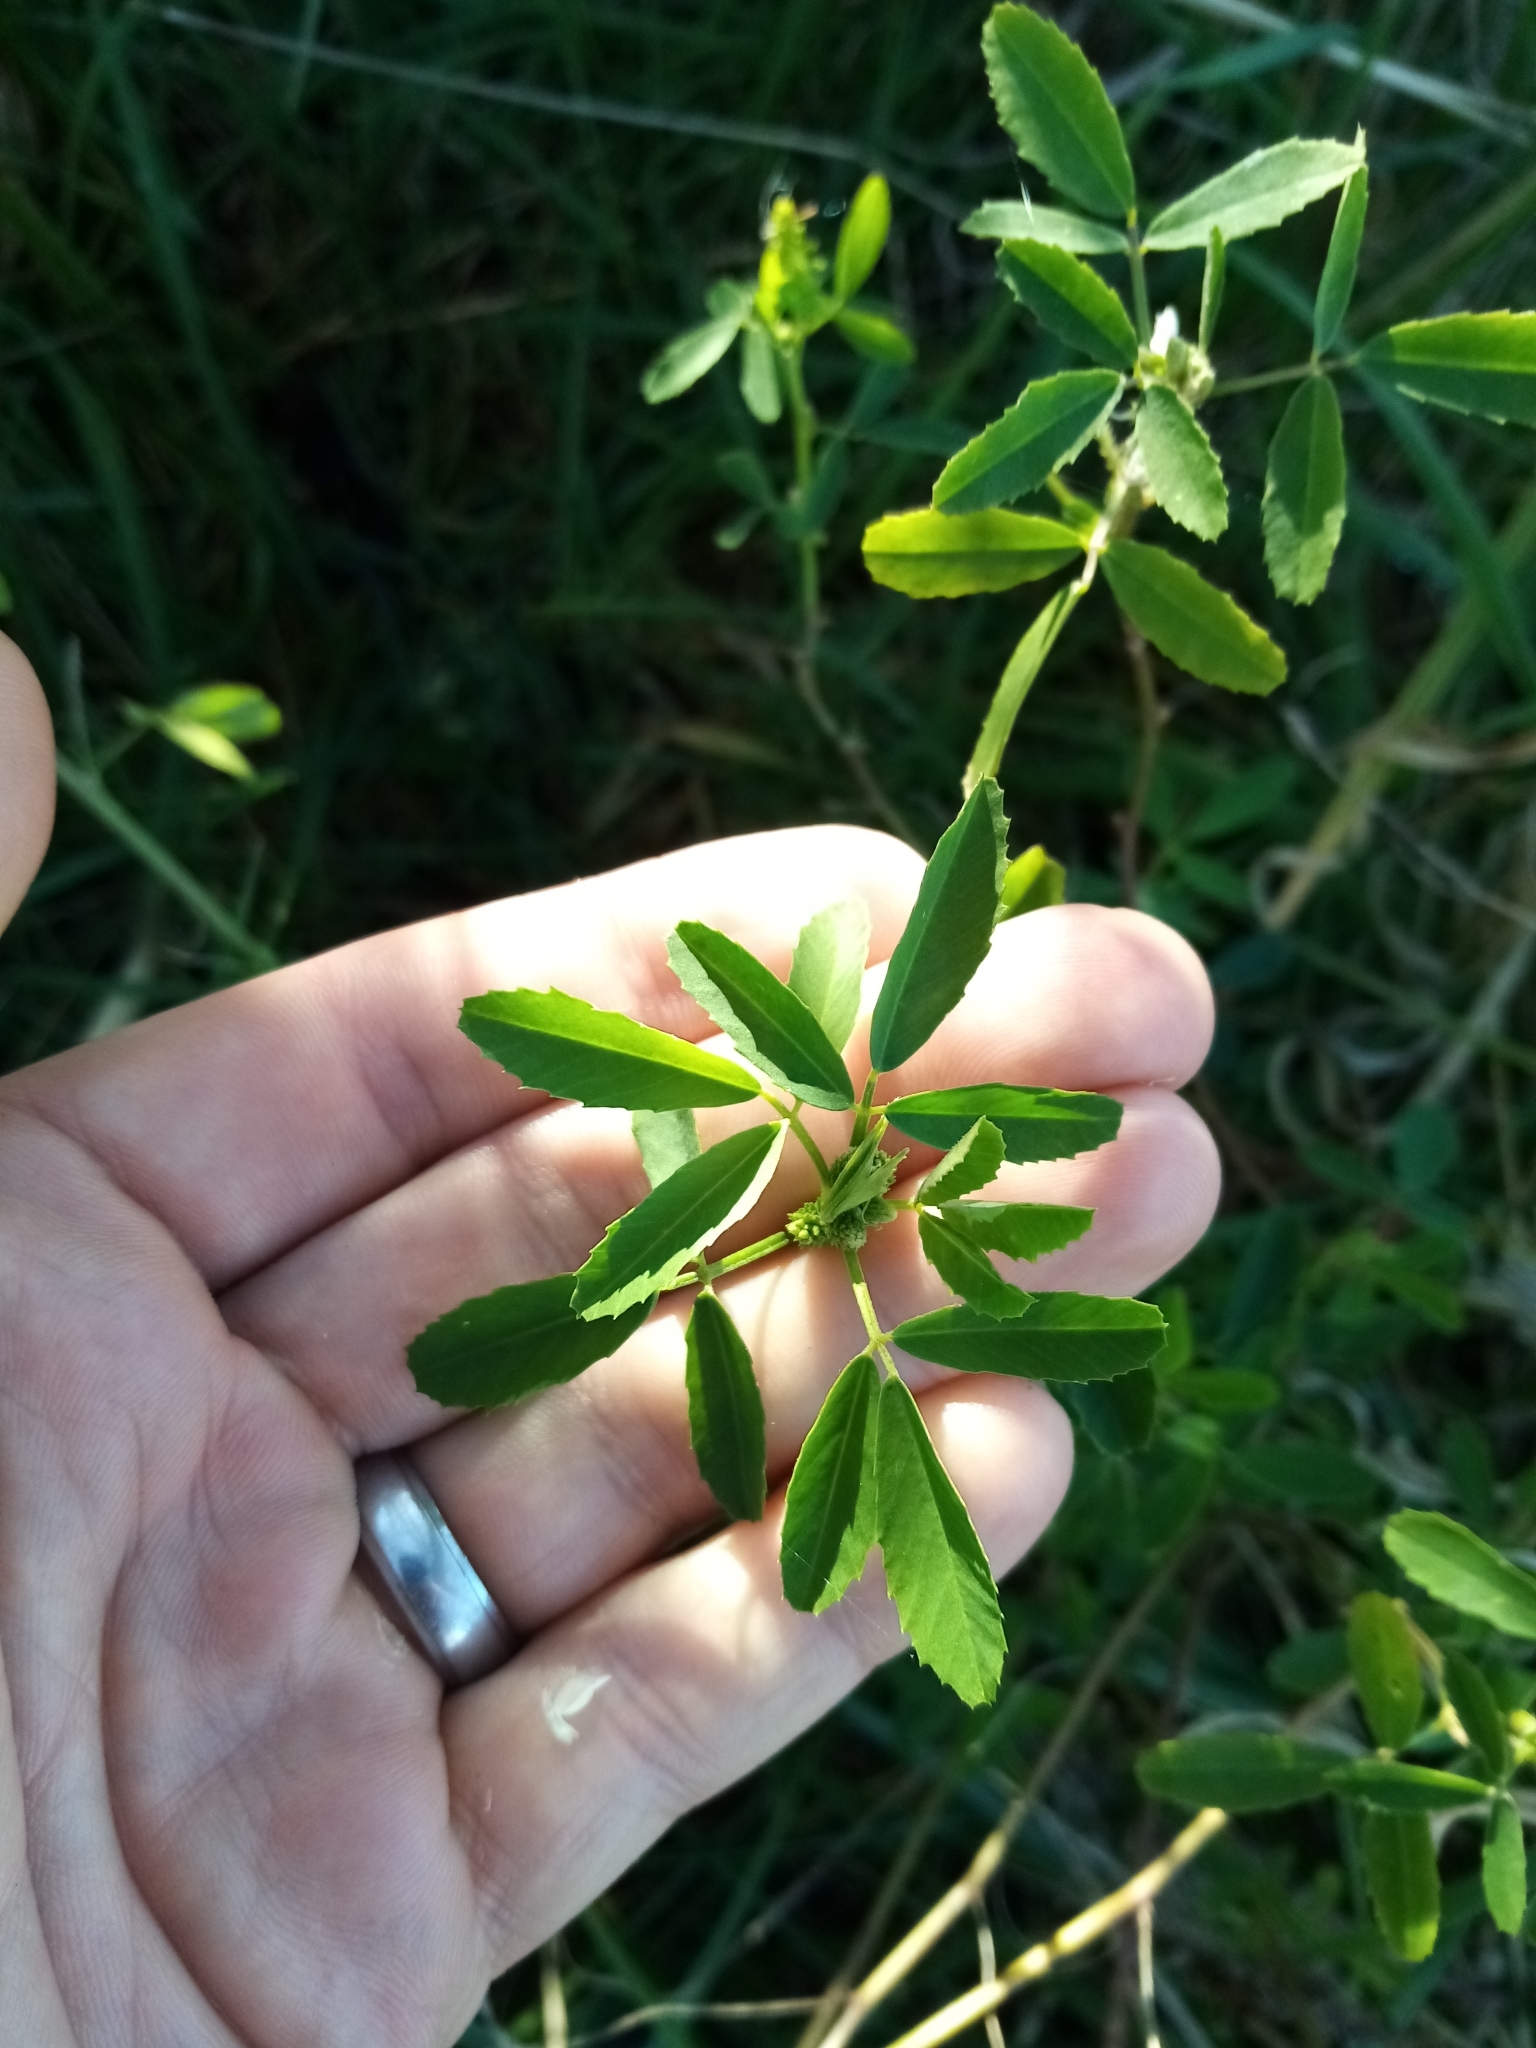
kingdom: Plantae
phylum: Tracheophyta
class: Magnoliopsida
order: Fabales
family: Fabaceae
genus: Melilotus
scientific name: Melilotus albus
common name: White melilot
